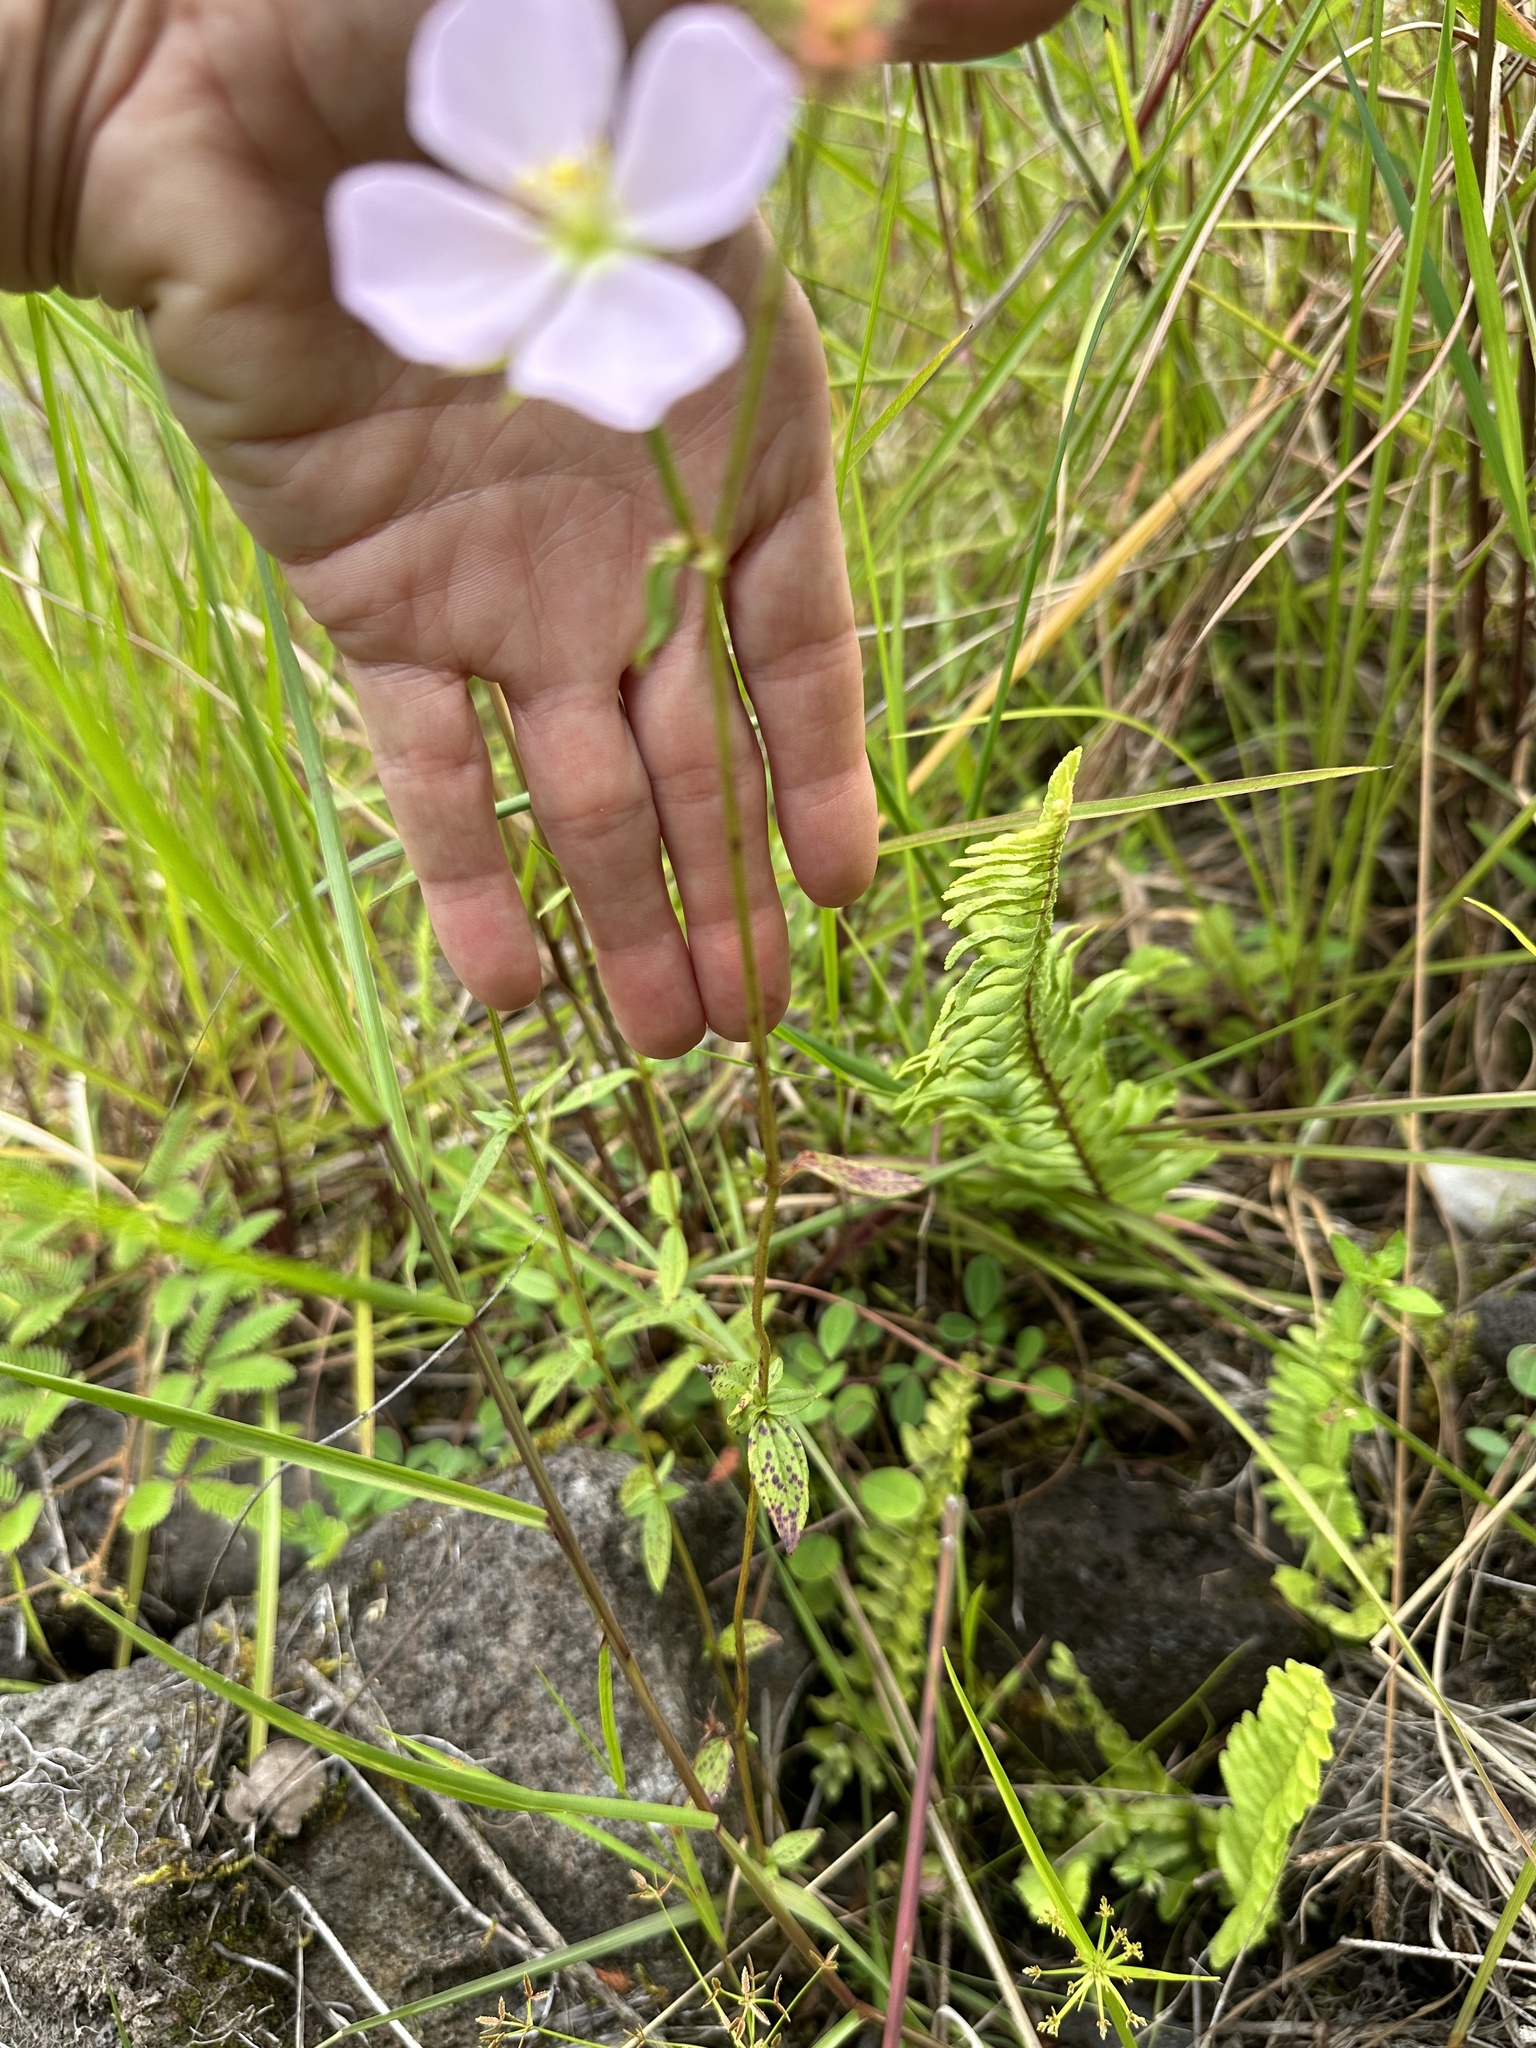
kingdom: Plantae
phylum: Tracheophyta
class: Magnoliopsida
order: Myrtales
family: Melastomataceae
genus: Pterolepis
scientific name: Pterolepis glomerata
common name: False meadowbeauty
